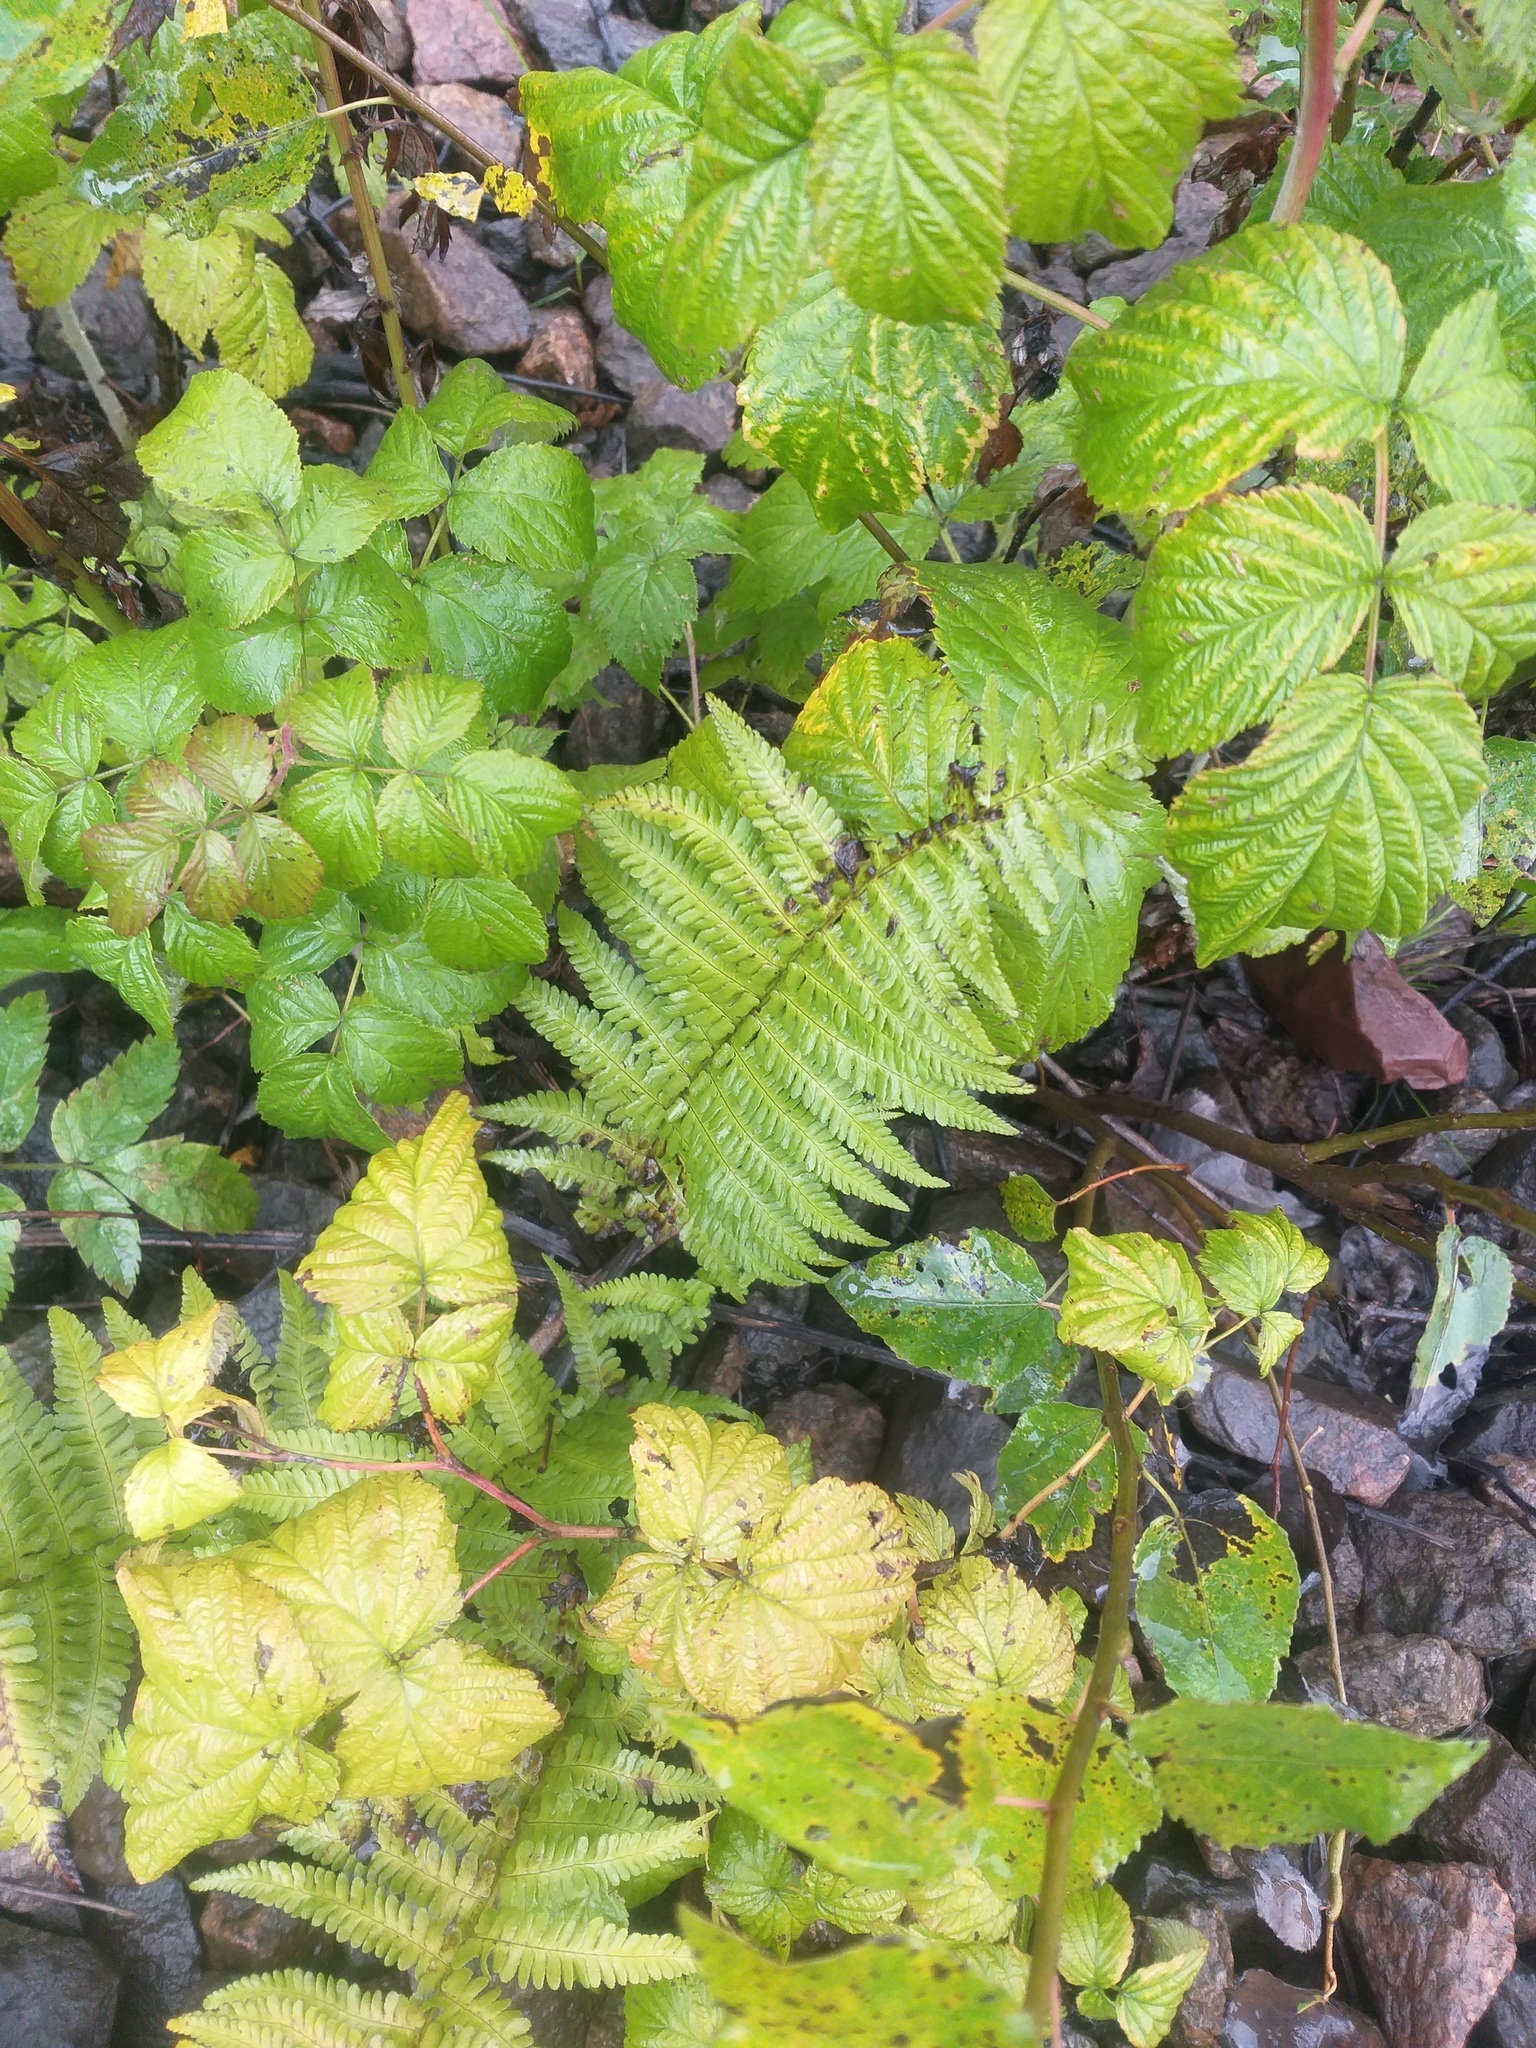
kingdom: Plantae
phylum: Tracheophyta
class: Polypodiopsida
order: Polypodiales
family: Dryopteridaceae
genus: Dryopteris
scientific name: Dryopteris filix-mas
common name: Male fern
